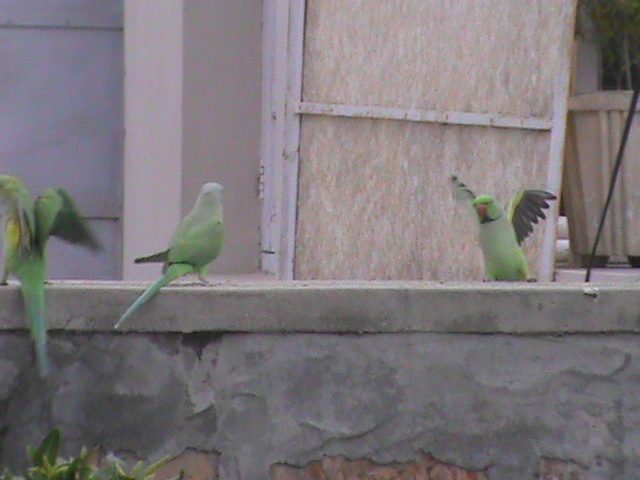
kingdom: Animalia
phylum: Chordata
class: Aves
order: Psittaciformes
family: Psittacidae
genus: Psittacula
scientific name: Psittacula krameri
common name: Rose-ringed parakeet
